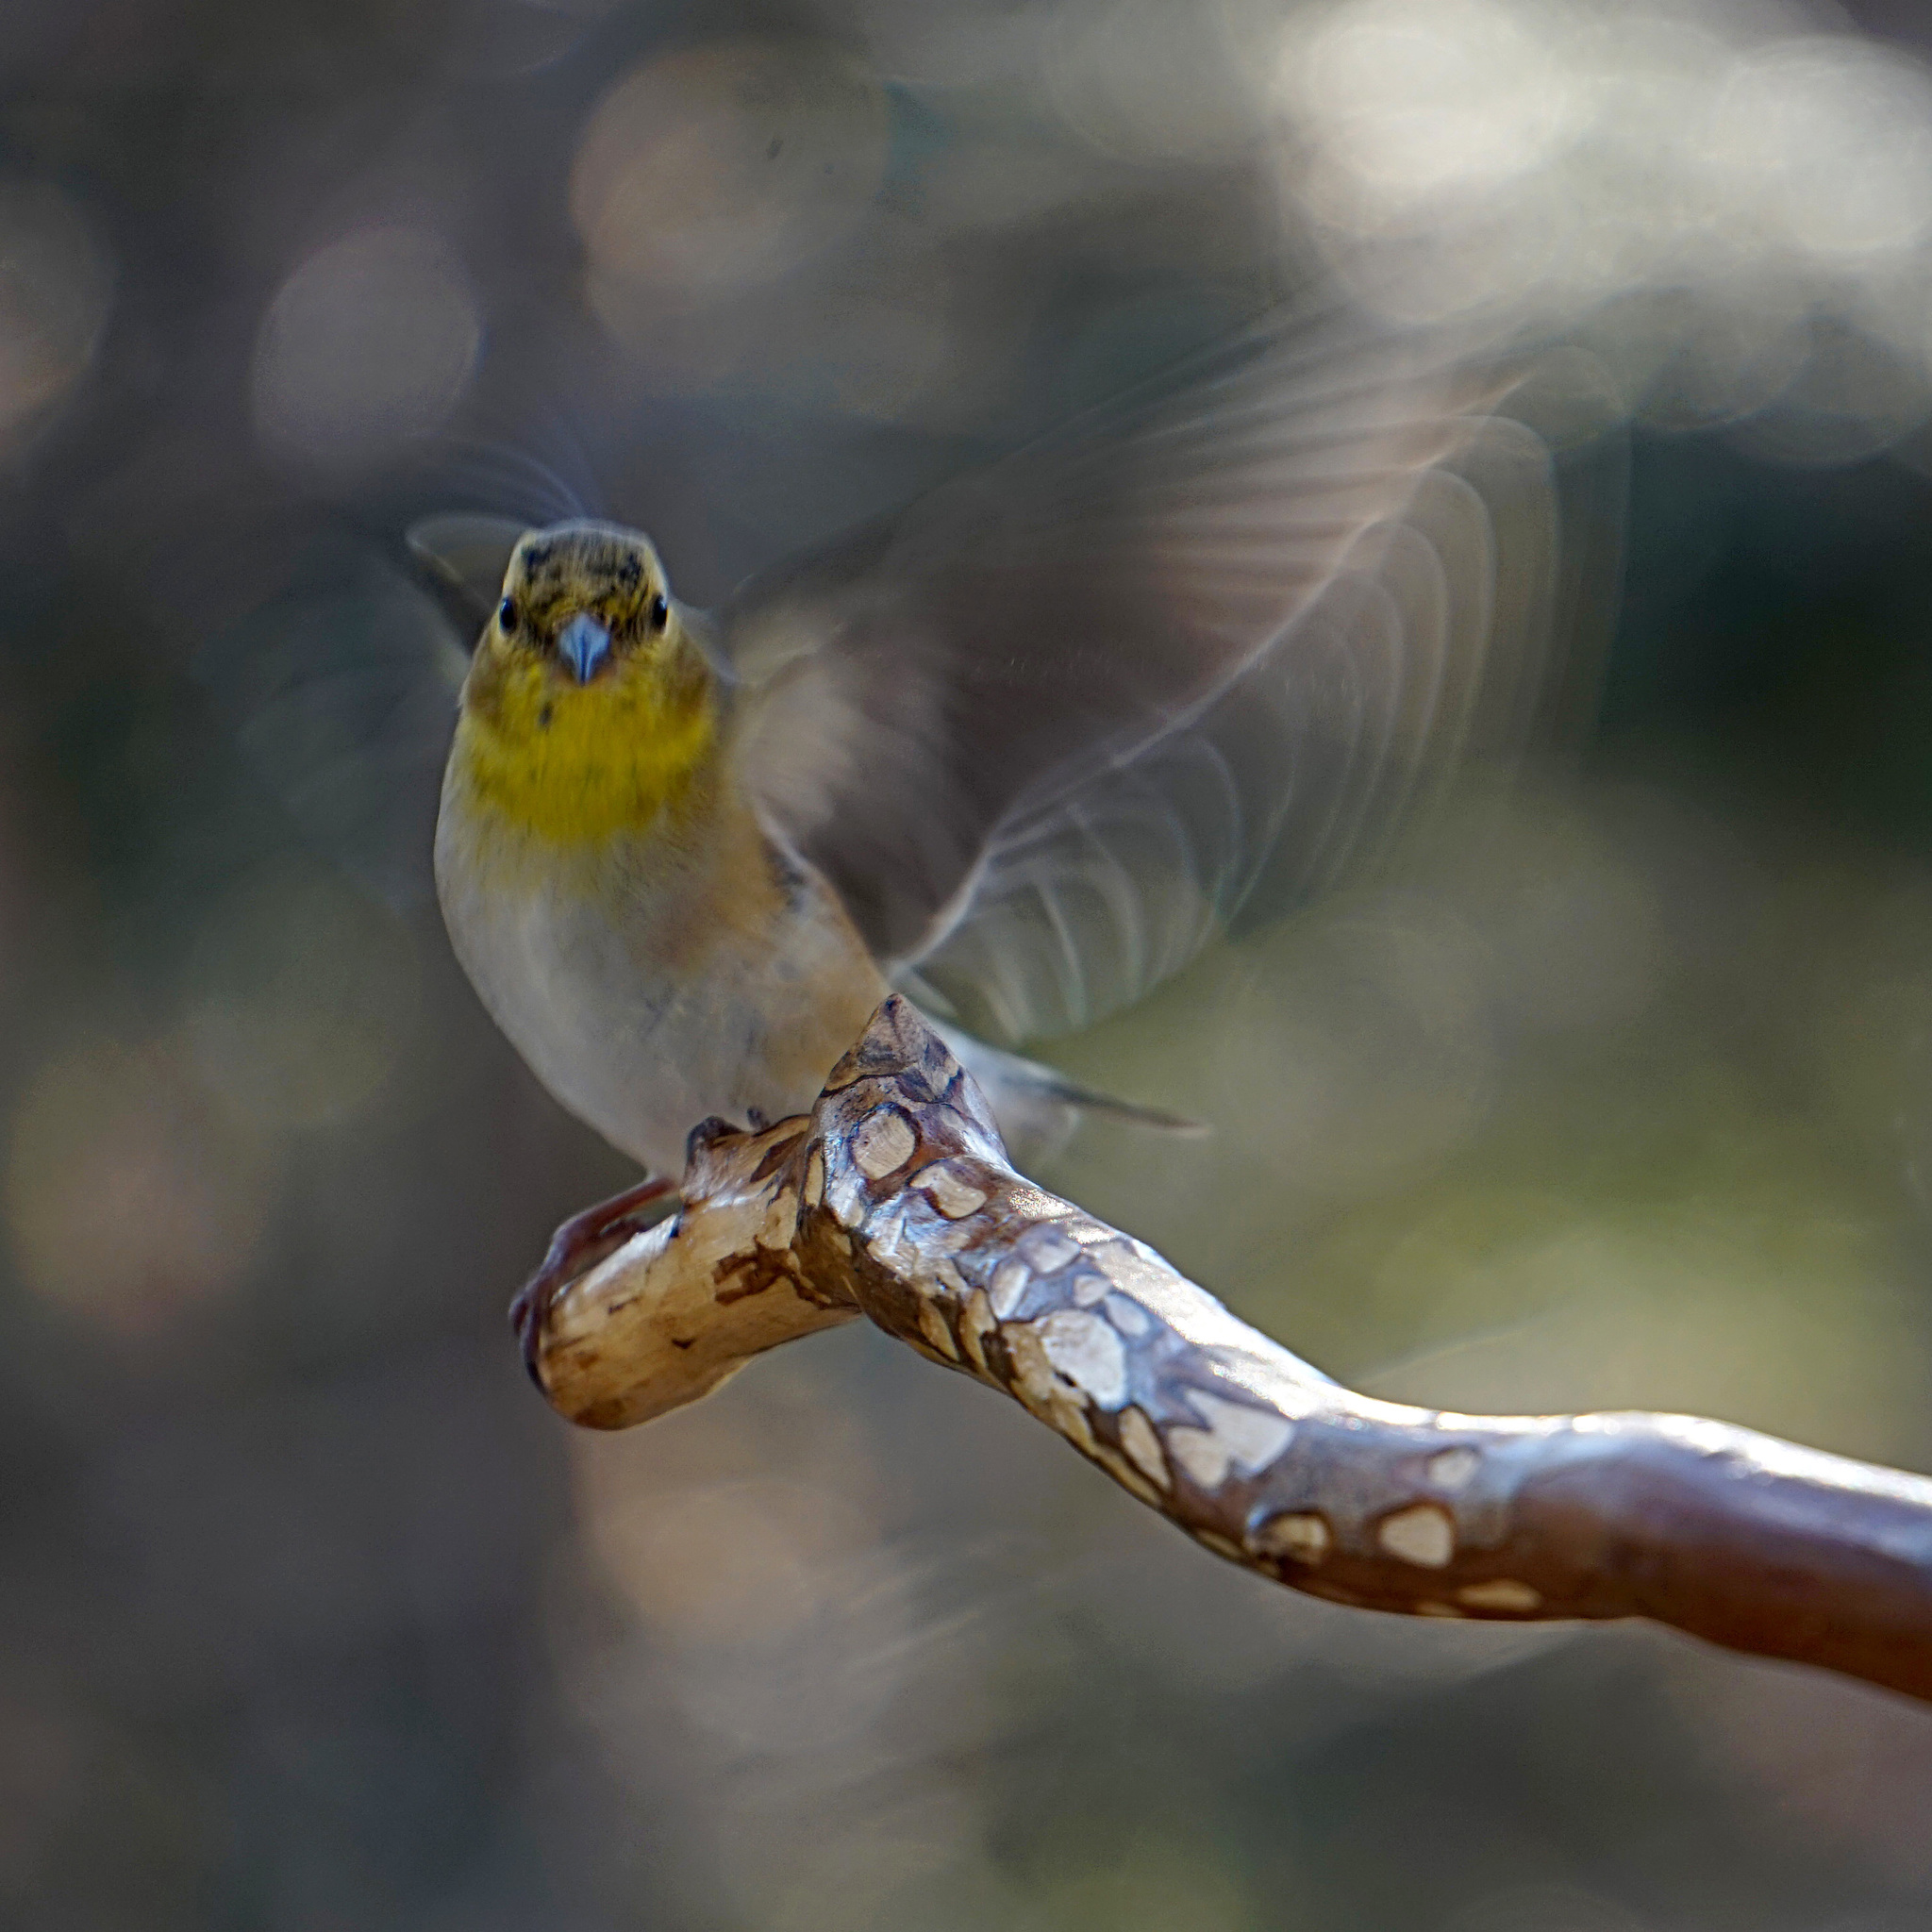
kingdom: Animalia
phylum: Chordata
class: Aves
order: Passeriformes
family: Fringillidae
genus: Spinus
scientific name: Spinus tristis
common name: American goldfinch
